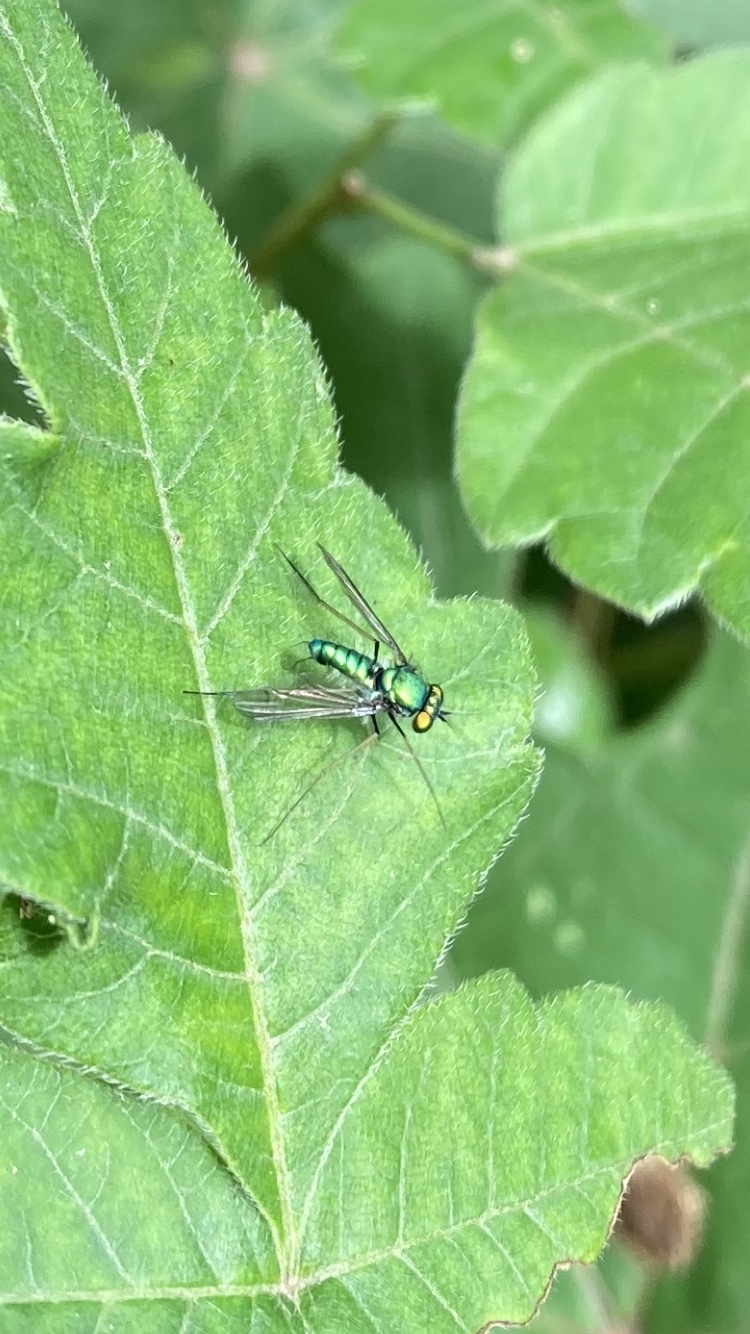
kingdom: Animalia
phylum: Arthropoda
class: Insecta
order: Diptera
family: Dolichopodidae
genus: Condylostylus
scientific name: Condylostylus comatus
